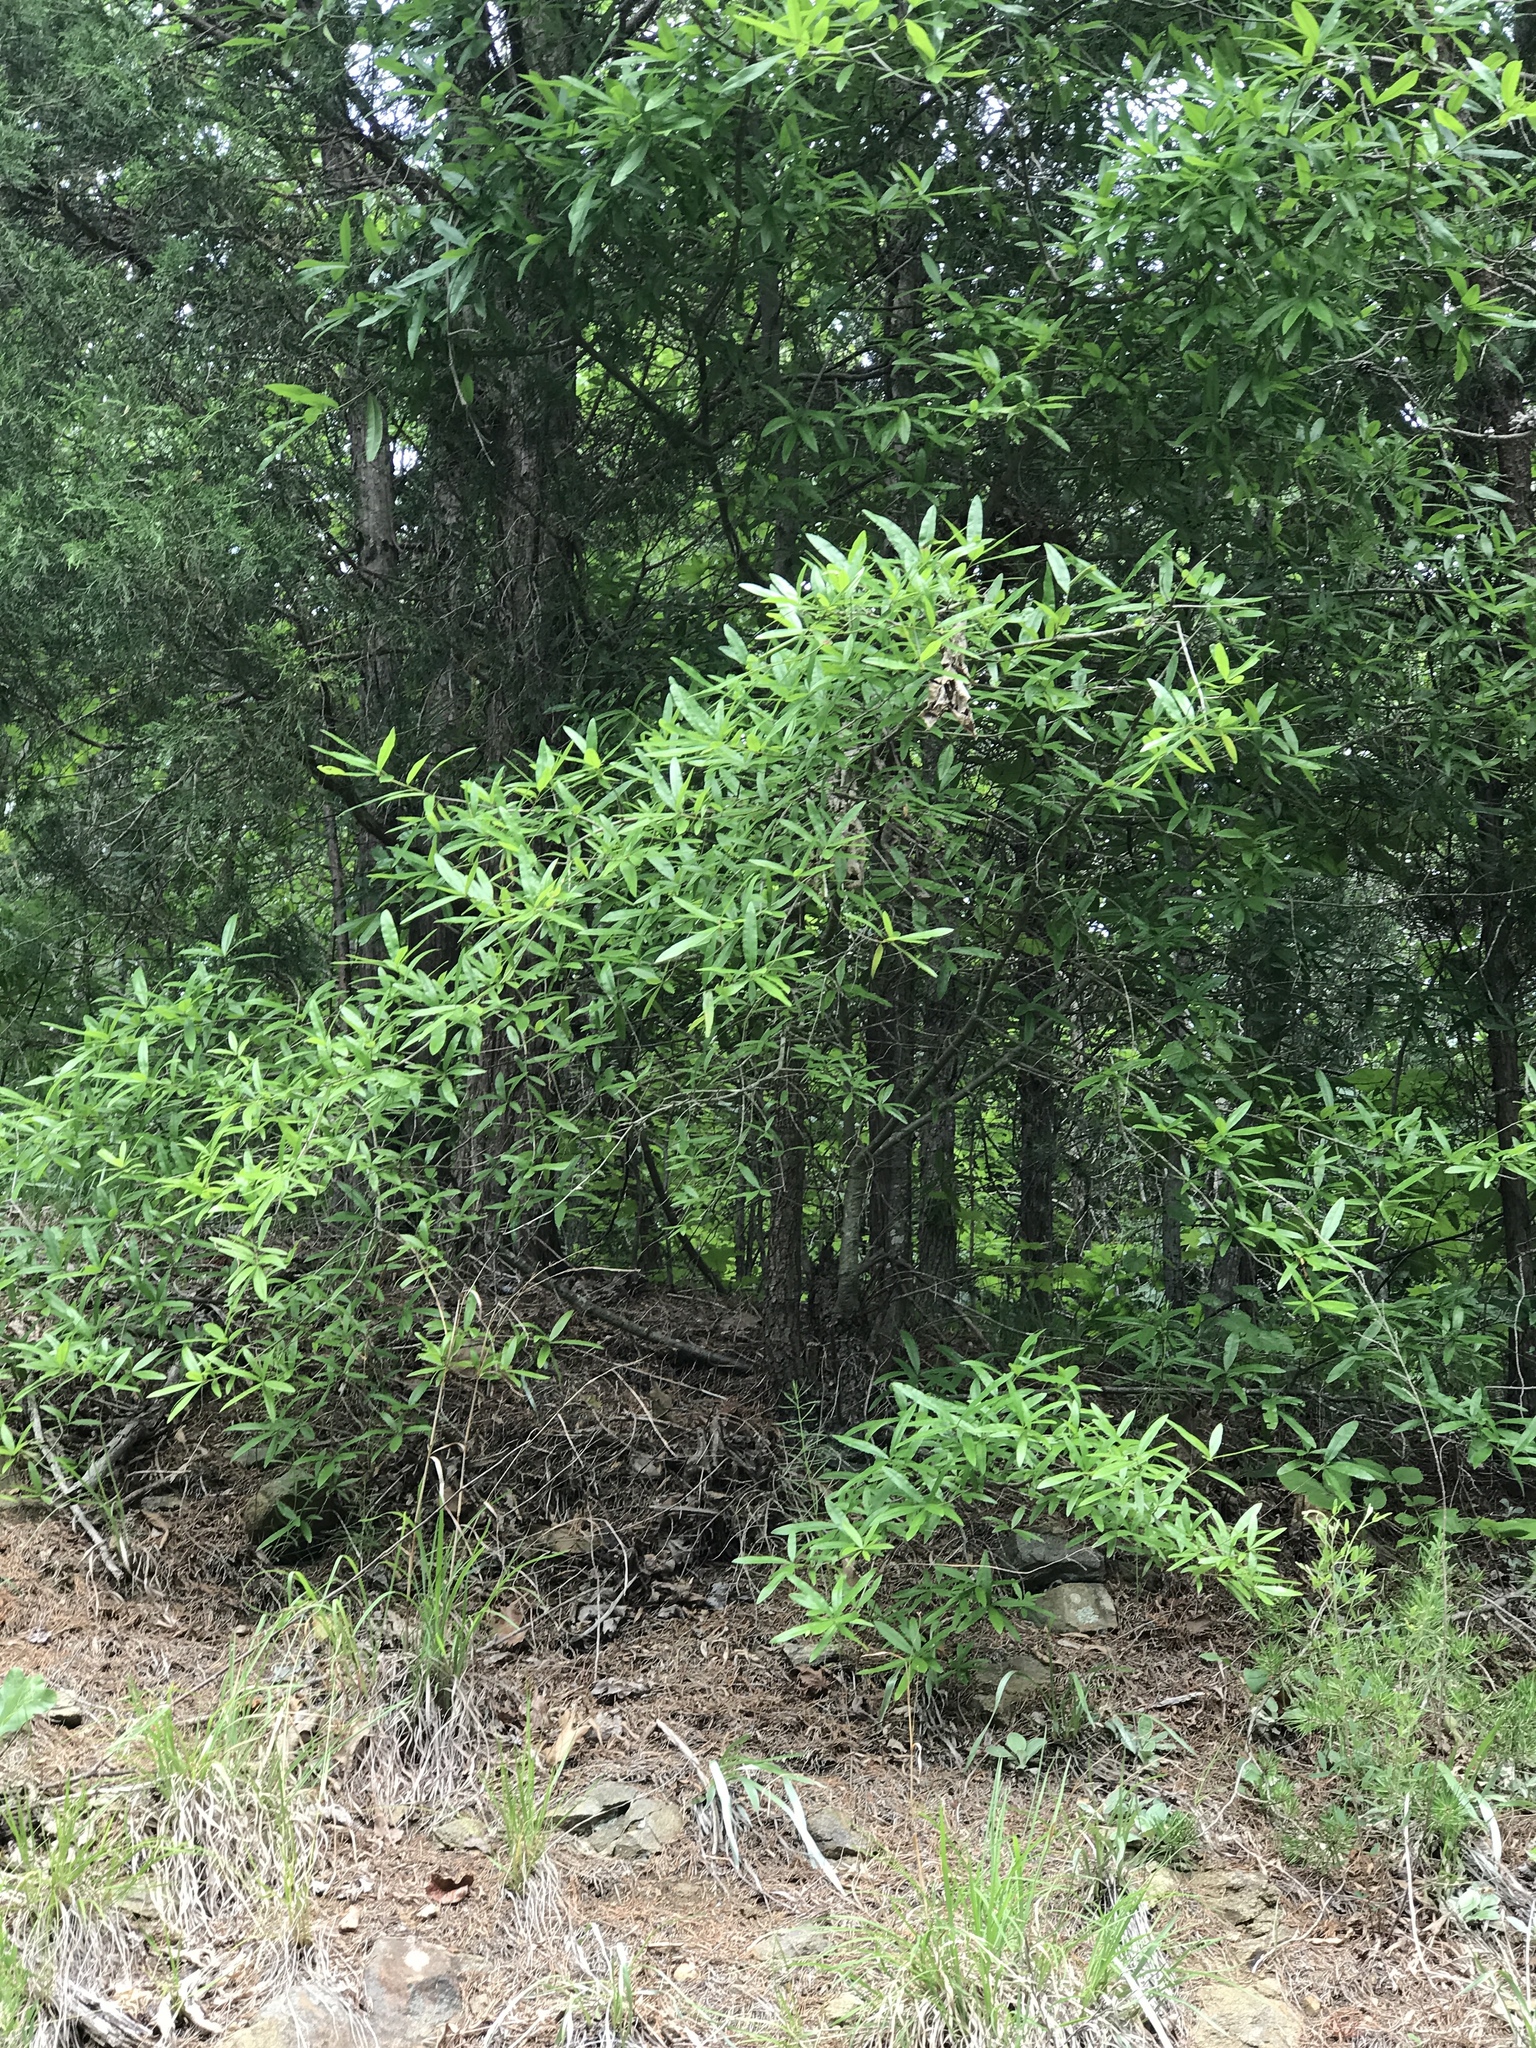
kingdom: Plantae
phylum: Tracheophyta
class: Magnoliopsida
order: Fagales
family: Fagaceae
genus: Quercus
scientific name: Quercus phellos
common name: Willow oak
